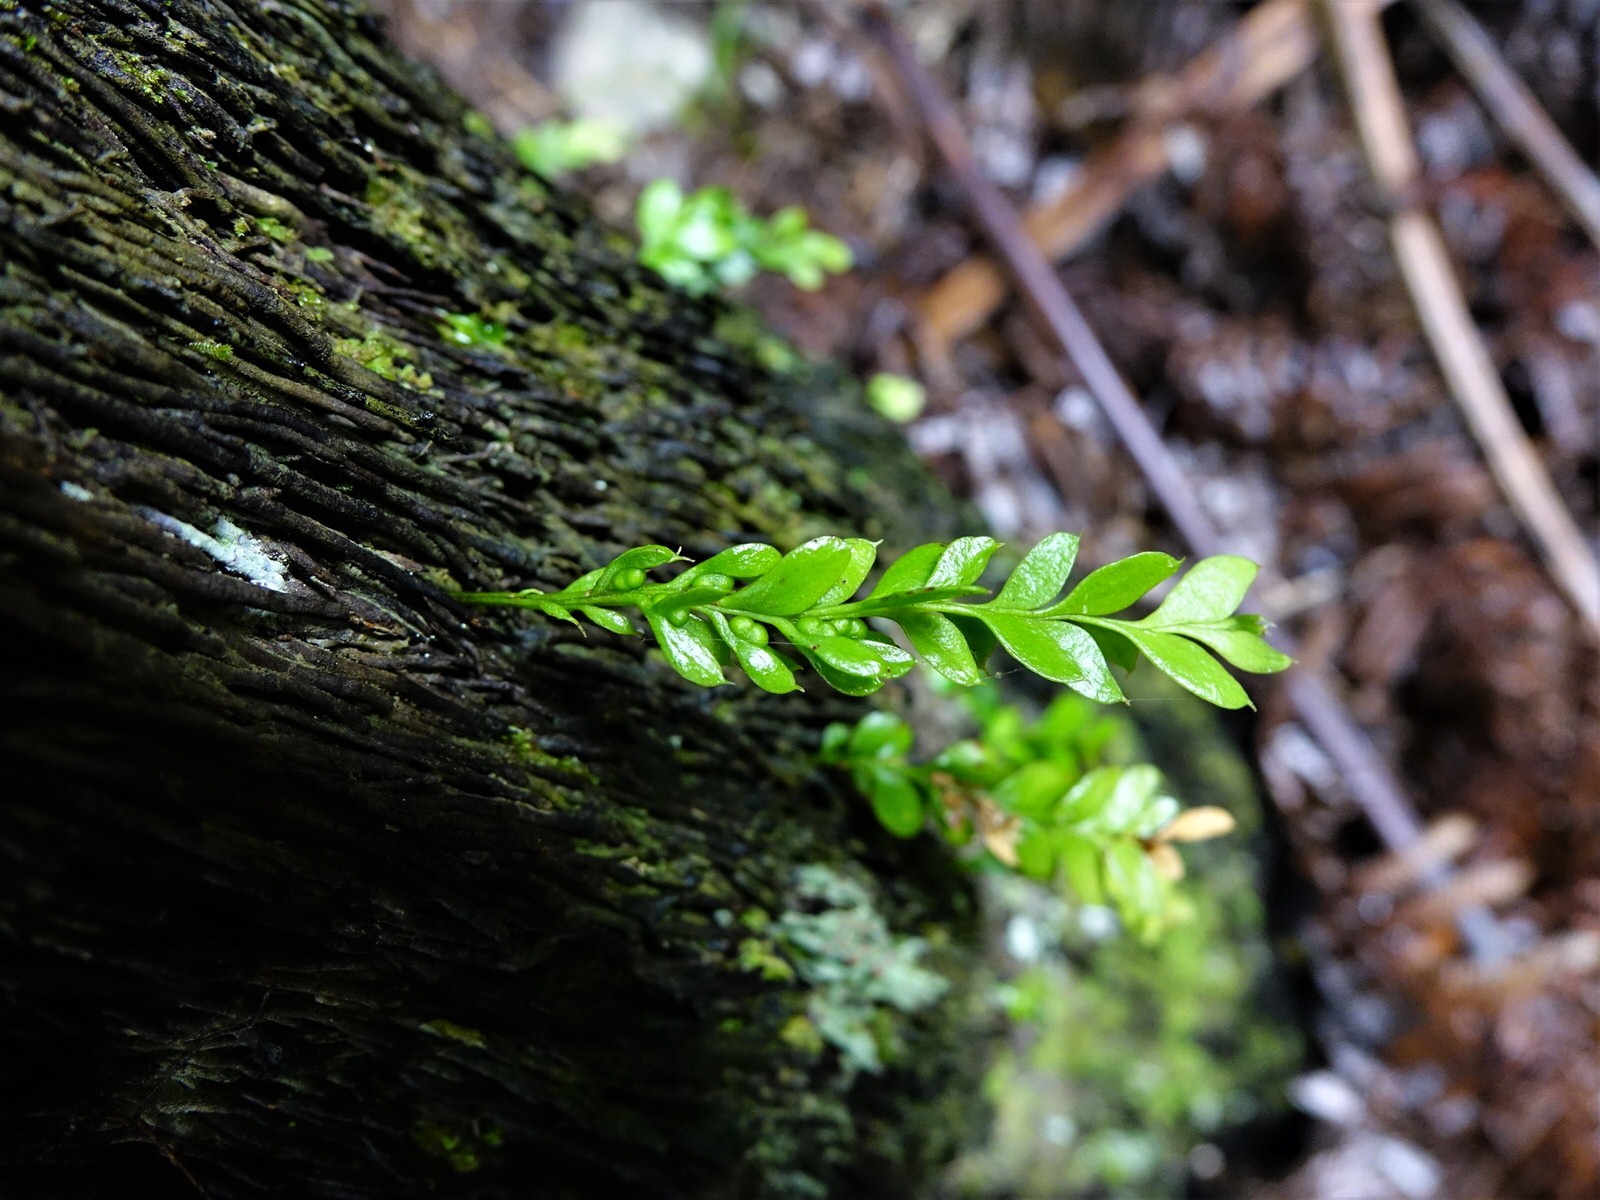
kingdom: Plantae
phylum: Tracheophyta
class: Polypodiopsida
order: Psilotales
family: Psilotaceae
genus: Tmesipteris
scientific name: Tmesipteris lanceolata
